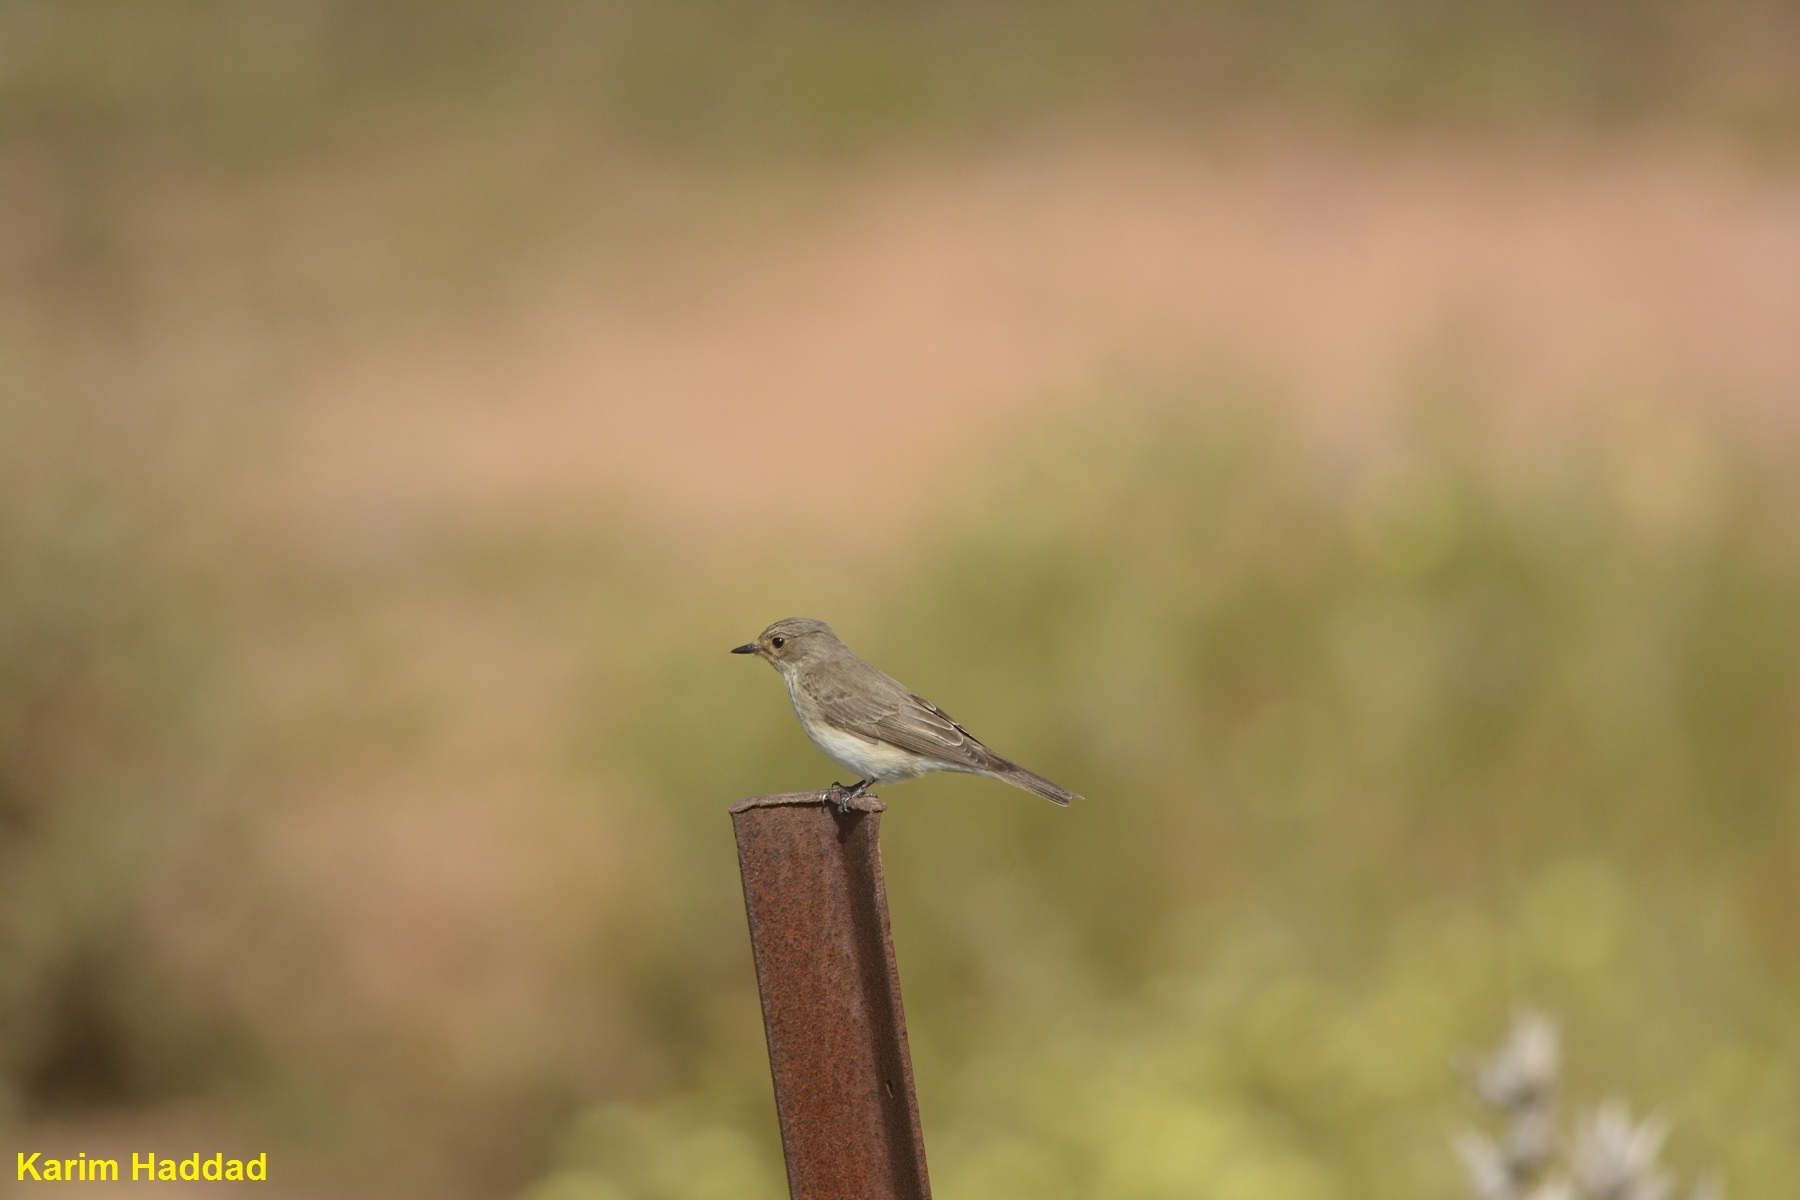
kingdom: Animalia
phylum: Chordata
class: Aves
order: Passeriformes
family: Muscicapidae
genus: Muscicapa
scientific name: Muscicapa striata
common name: Spotted flycatcher
